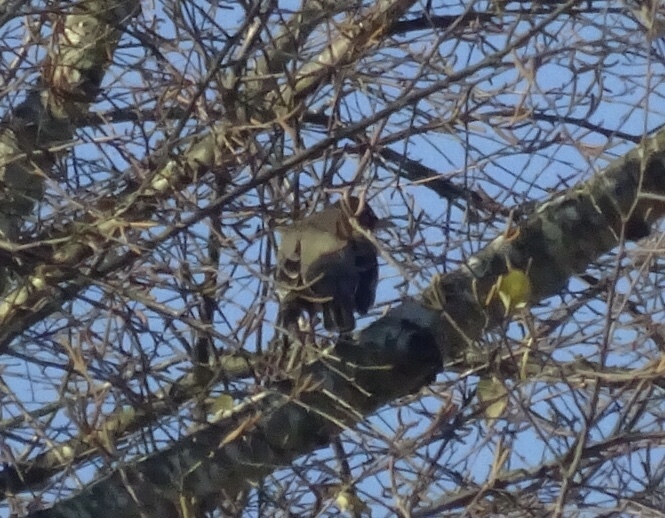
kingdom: Animalia
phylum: Chordata
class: Aves
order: Passeriformes
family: Turdidae
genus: Turdus
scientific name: Turdus migratorius
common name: American robin
